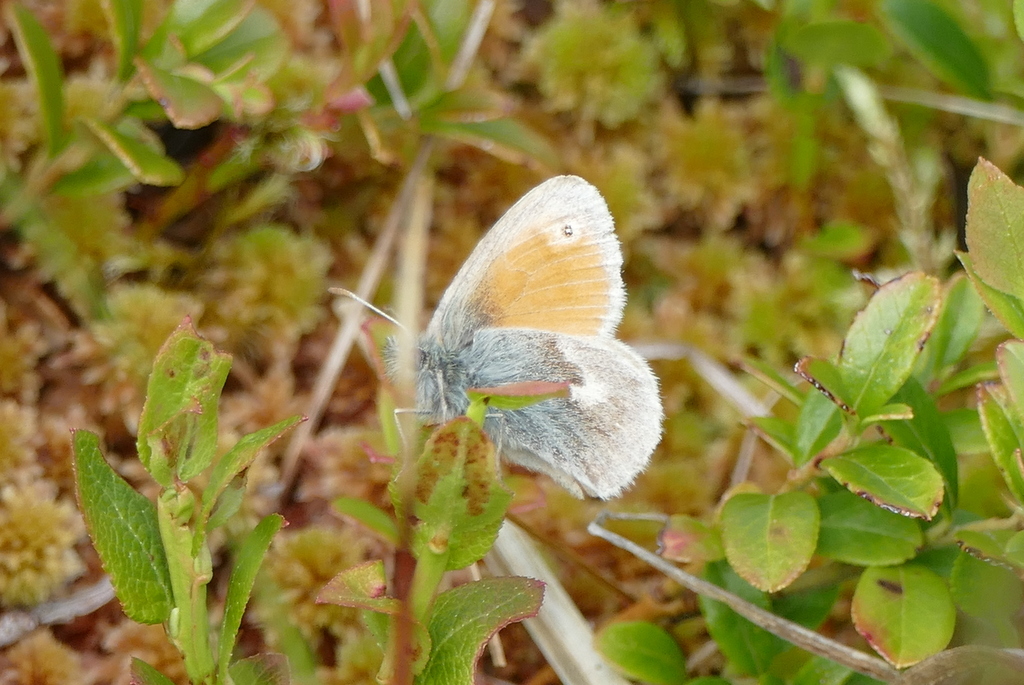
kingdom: Animalia
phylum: Arthropoda
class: Insecta
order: Lepidoptera
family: Nymphalidae
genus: Coenonympha
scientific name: Coenonympha pamphilus
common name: Small heath
